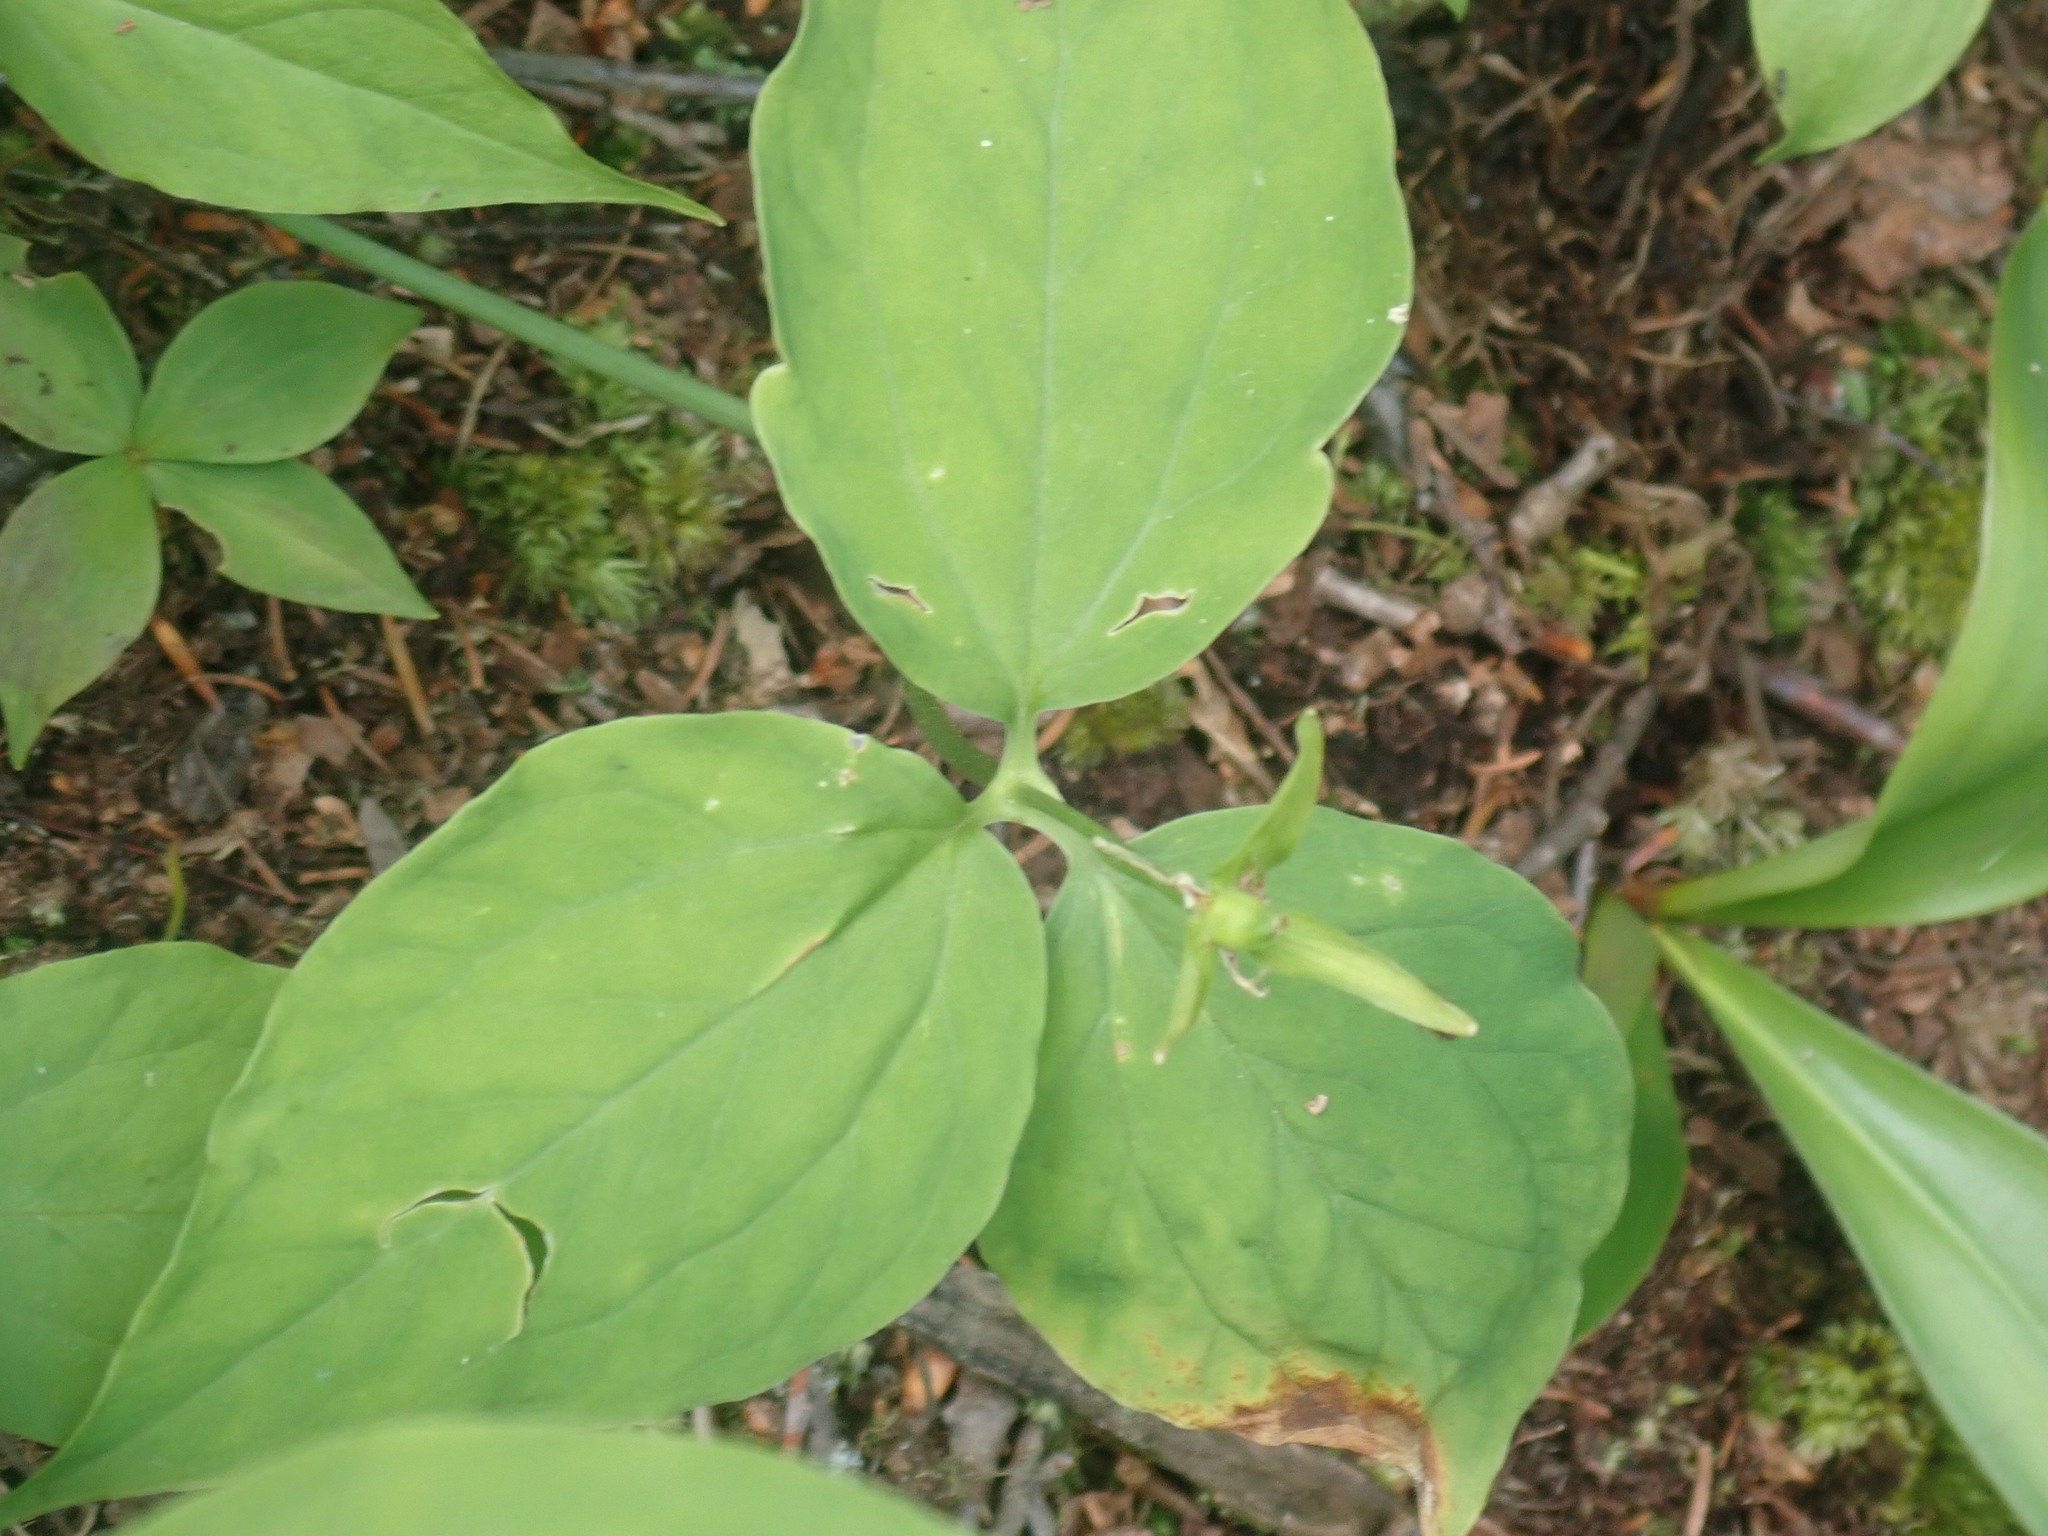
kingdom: Plantae
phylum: Tracheophyta
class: Liliopsida
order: Liliales
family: Melanthiaceae
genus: Trillium
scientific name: Trillium undulatum
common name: Paint trillium
